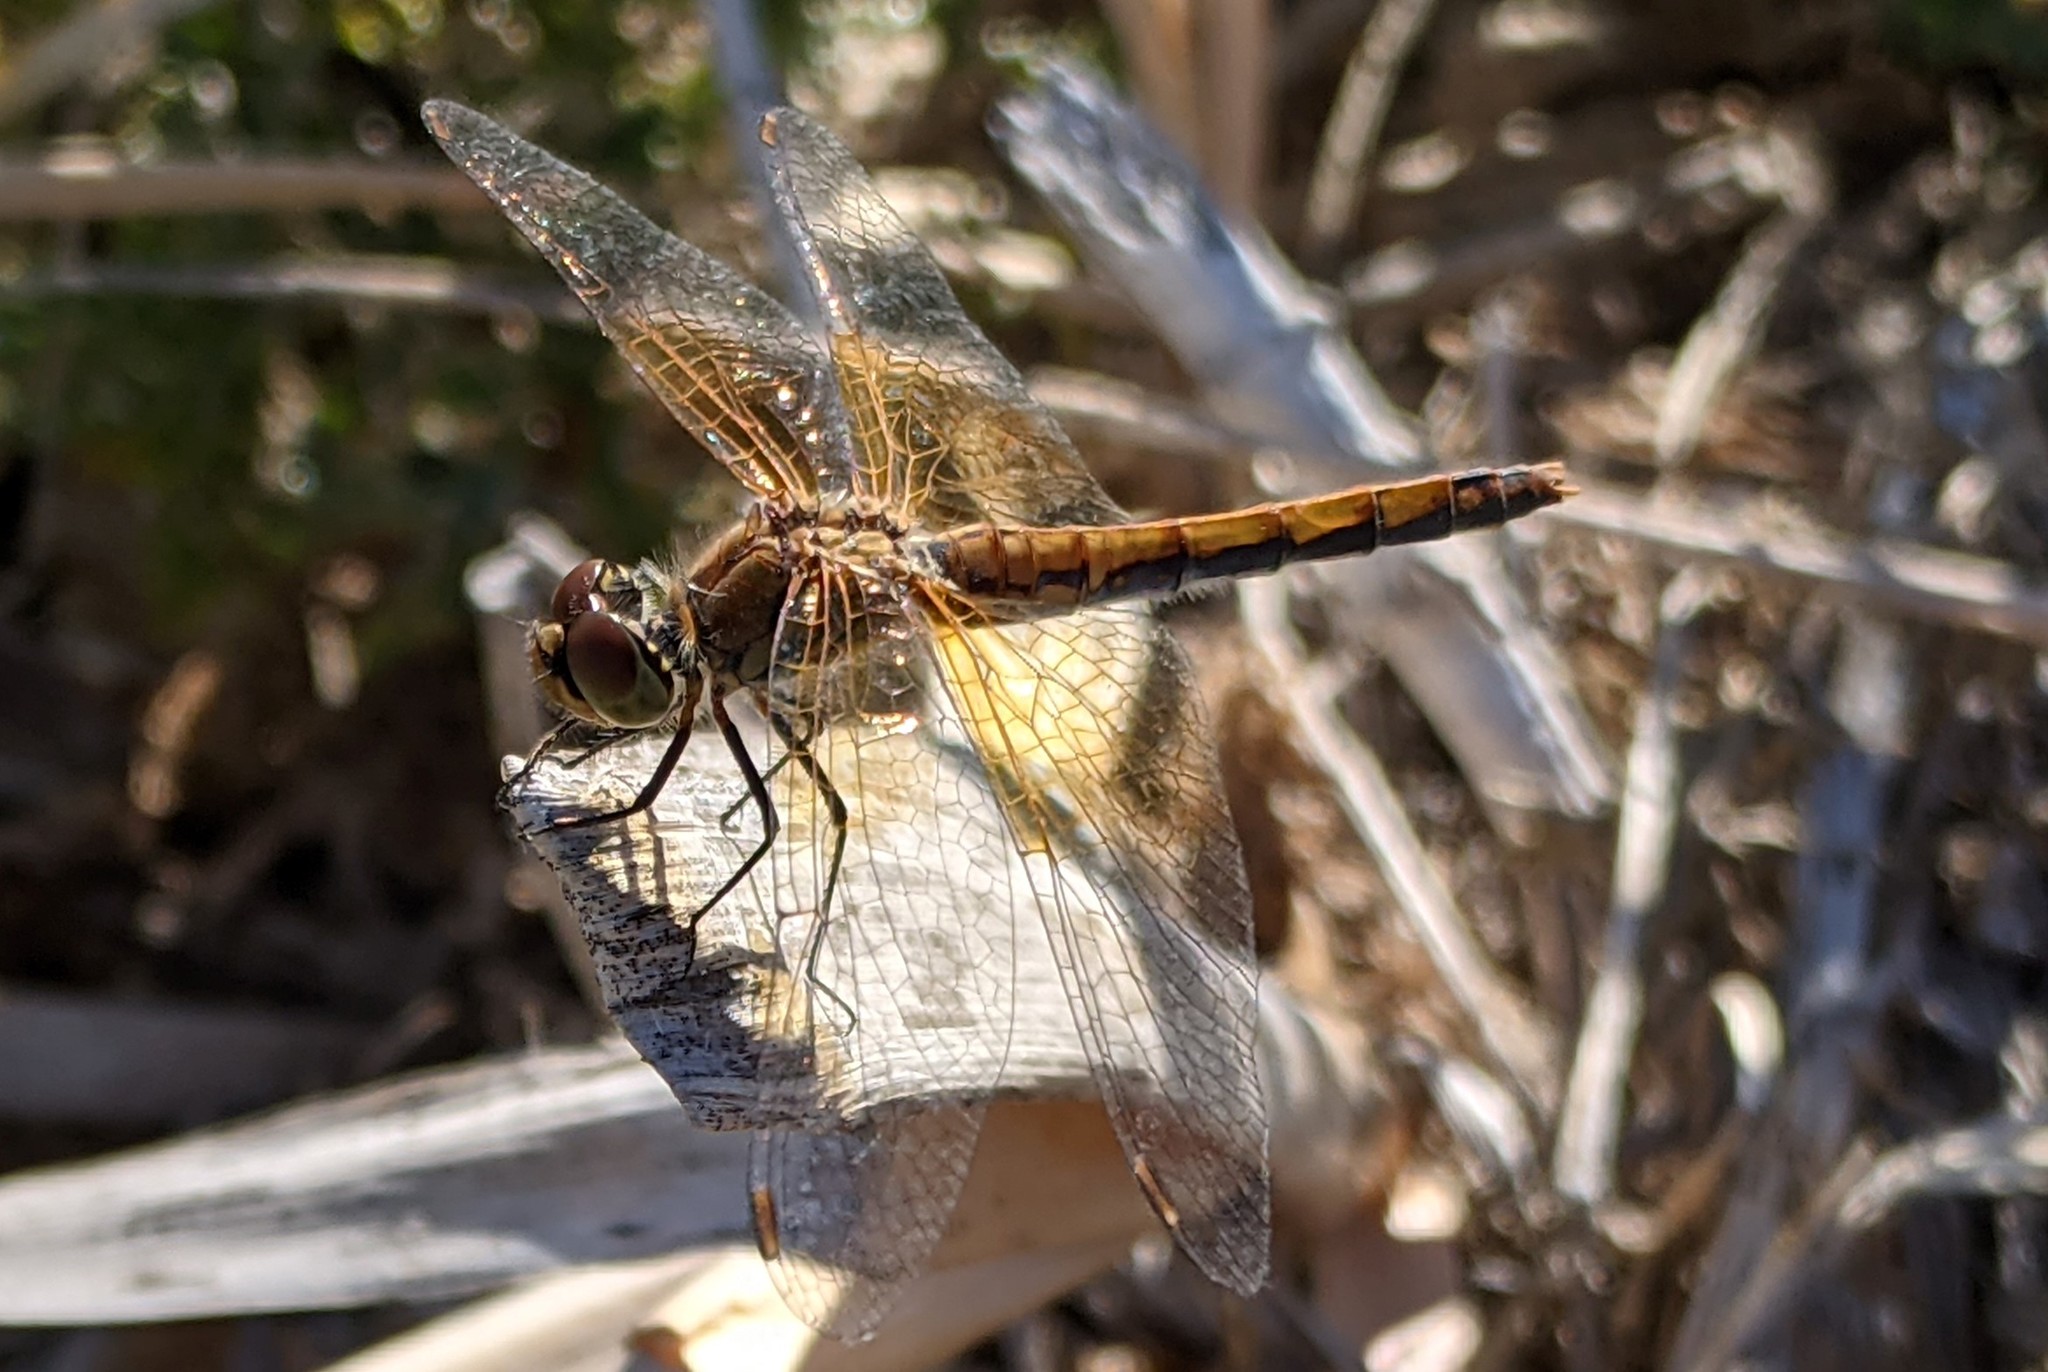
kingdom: Animalia
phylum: Arthropoda
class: Insecta
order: Odonata
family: Libellulidae
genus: Sympetrum
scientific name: Sympetrum semicinctum
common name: Band-winged meadowhawk
